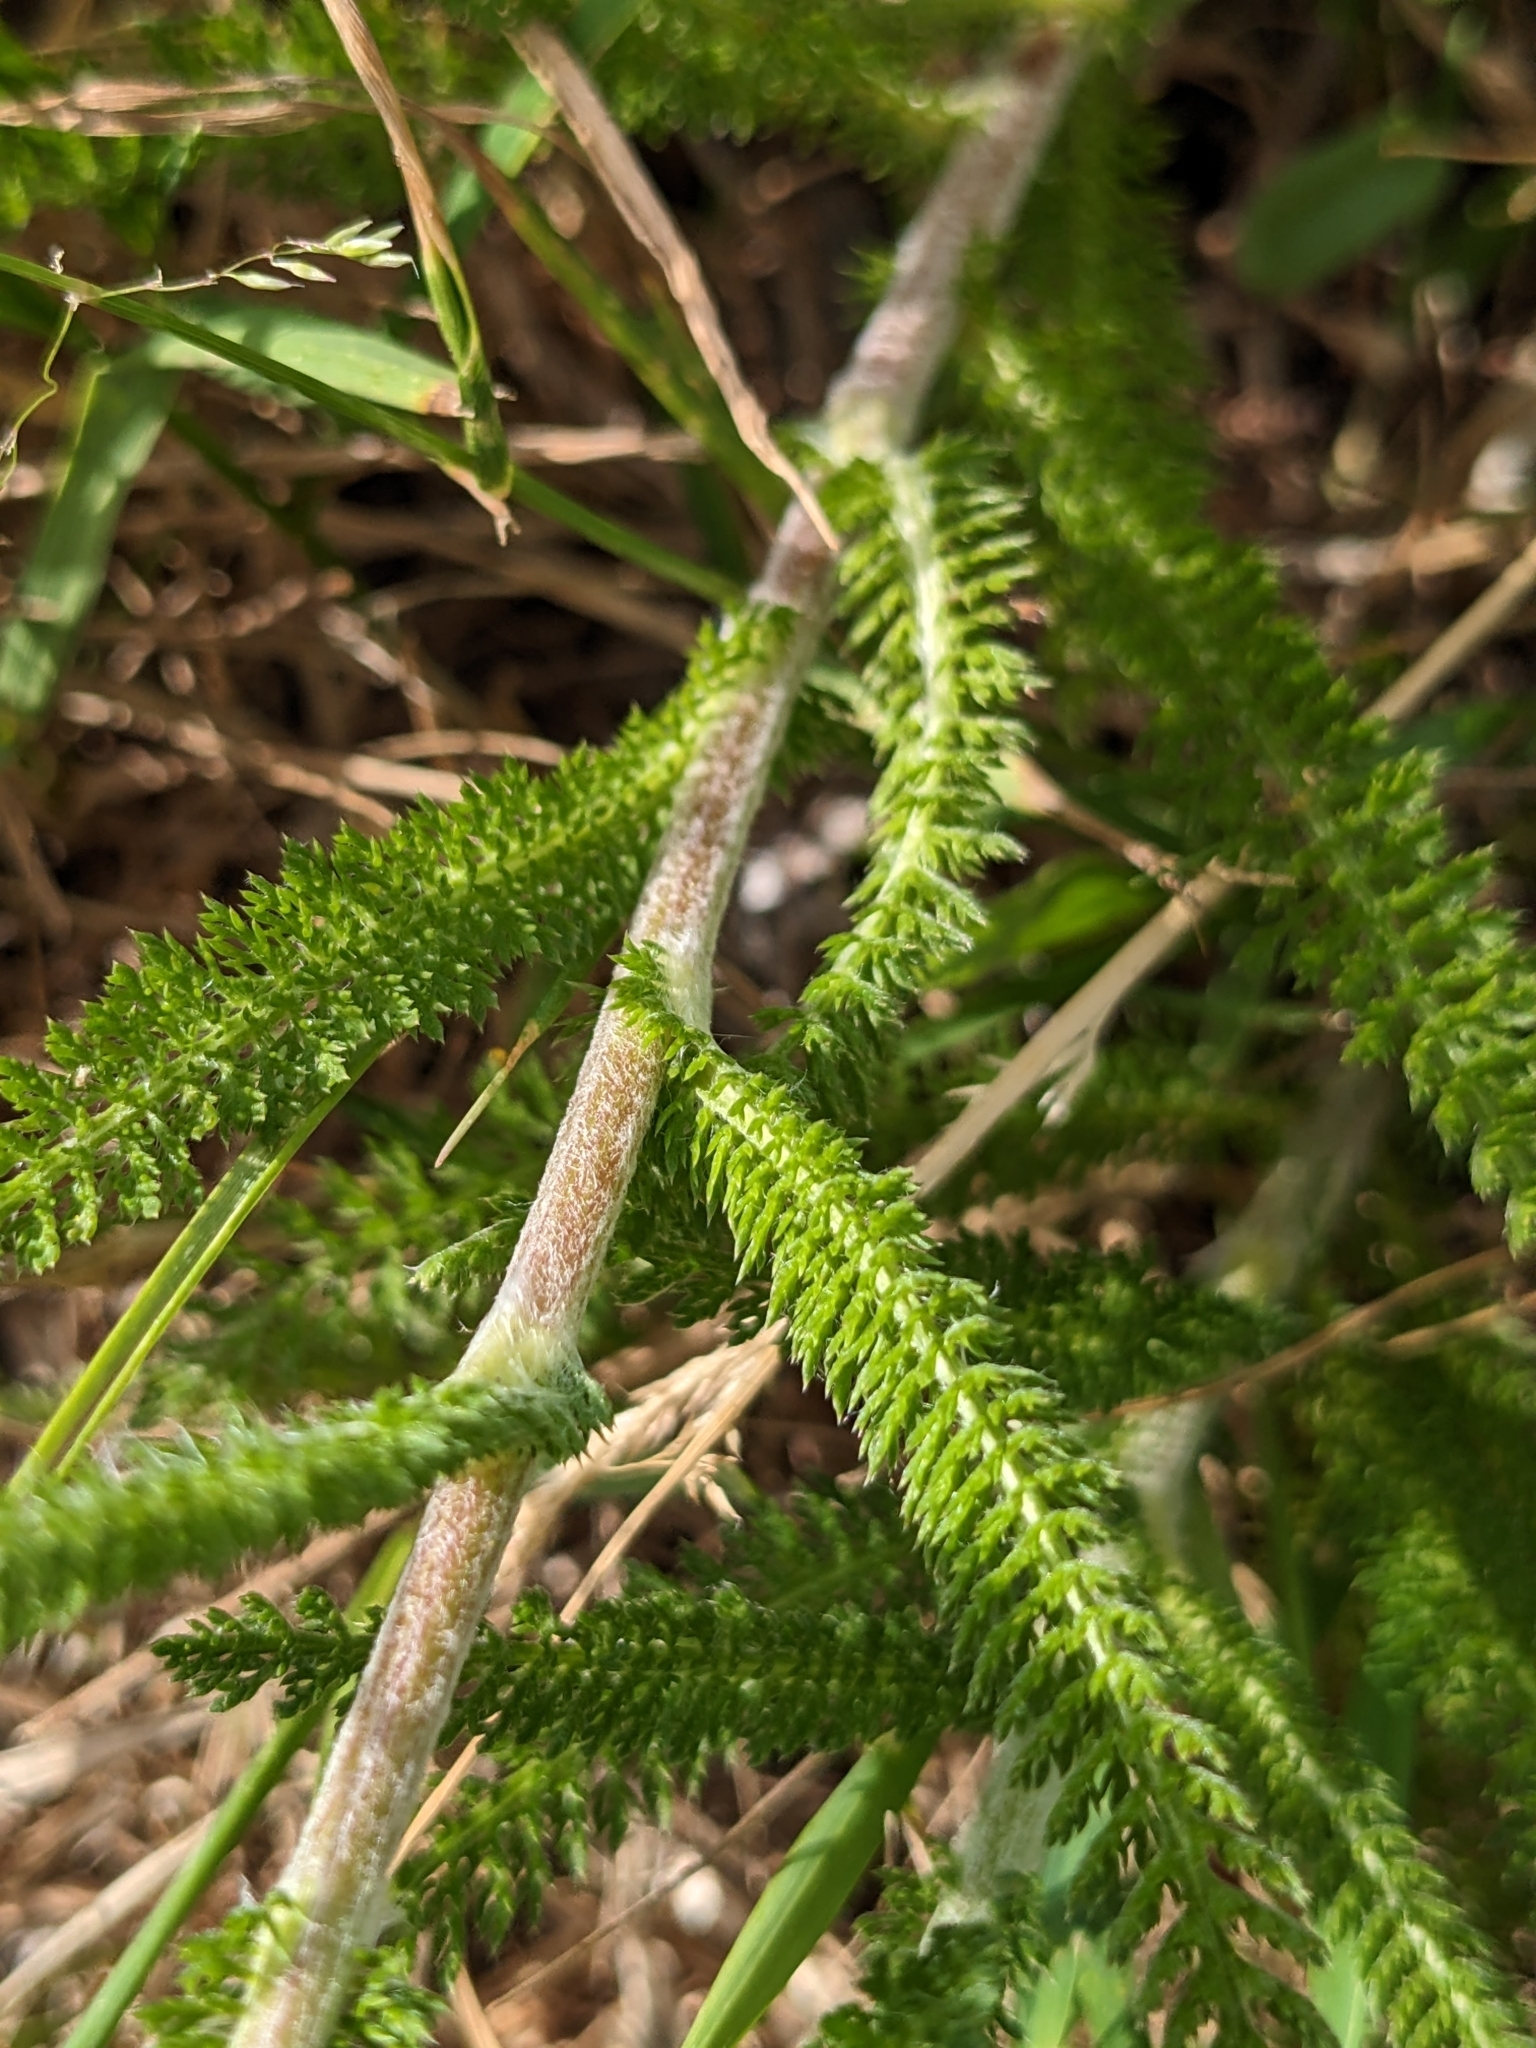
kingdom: Plantae
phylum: Tracheophyta
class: Magnoliopsida
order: Asterales
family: Asteraceae
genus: Achillea
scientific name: Achillea millefolium
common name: Yarrow
